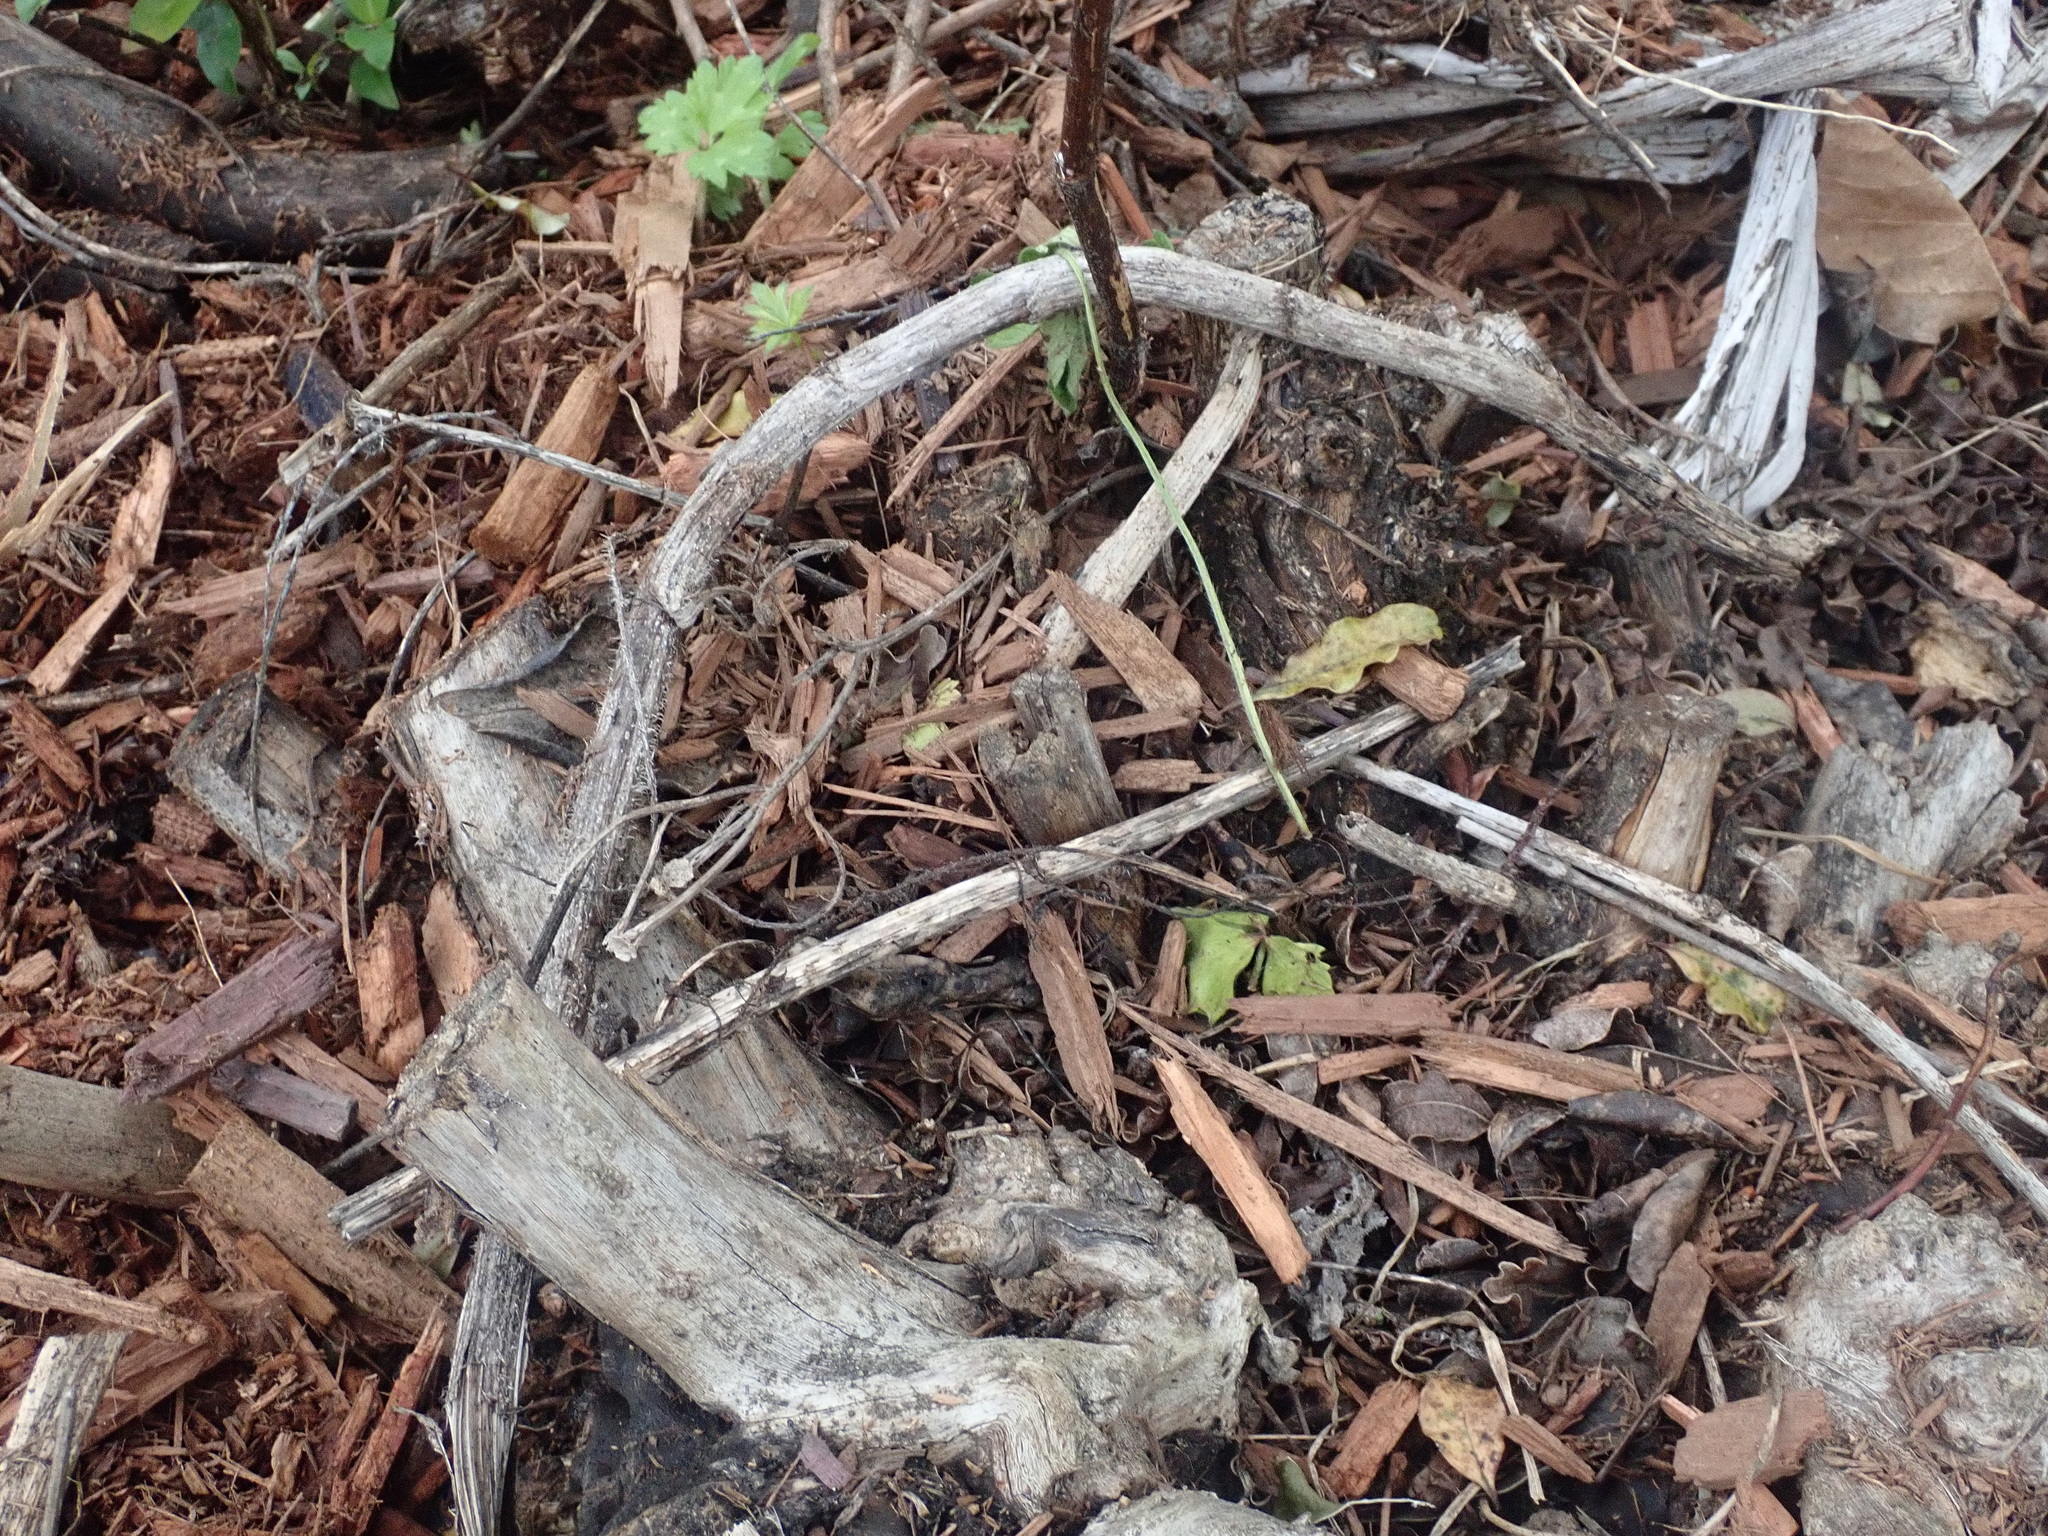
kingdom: Plantae
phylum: Tracheophyta
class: Magnoliopsida
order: Geraniales
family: Melianthaceae
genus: Melianthus
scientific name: Melianthus major
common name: Honey-flower
